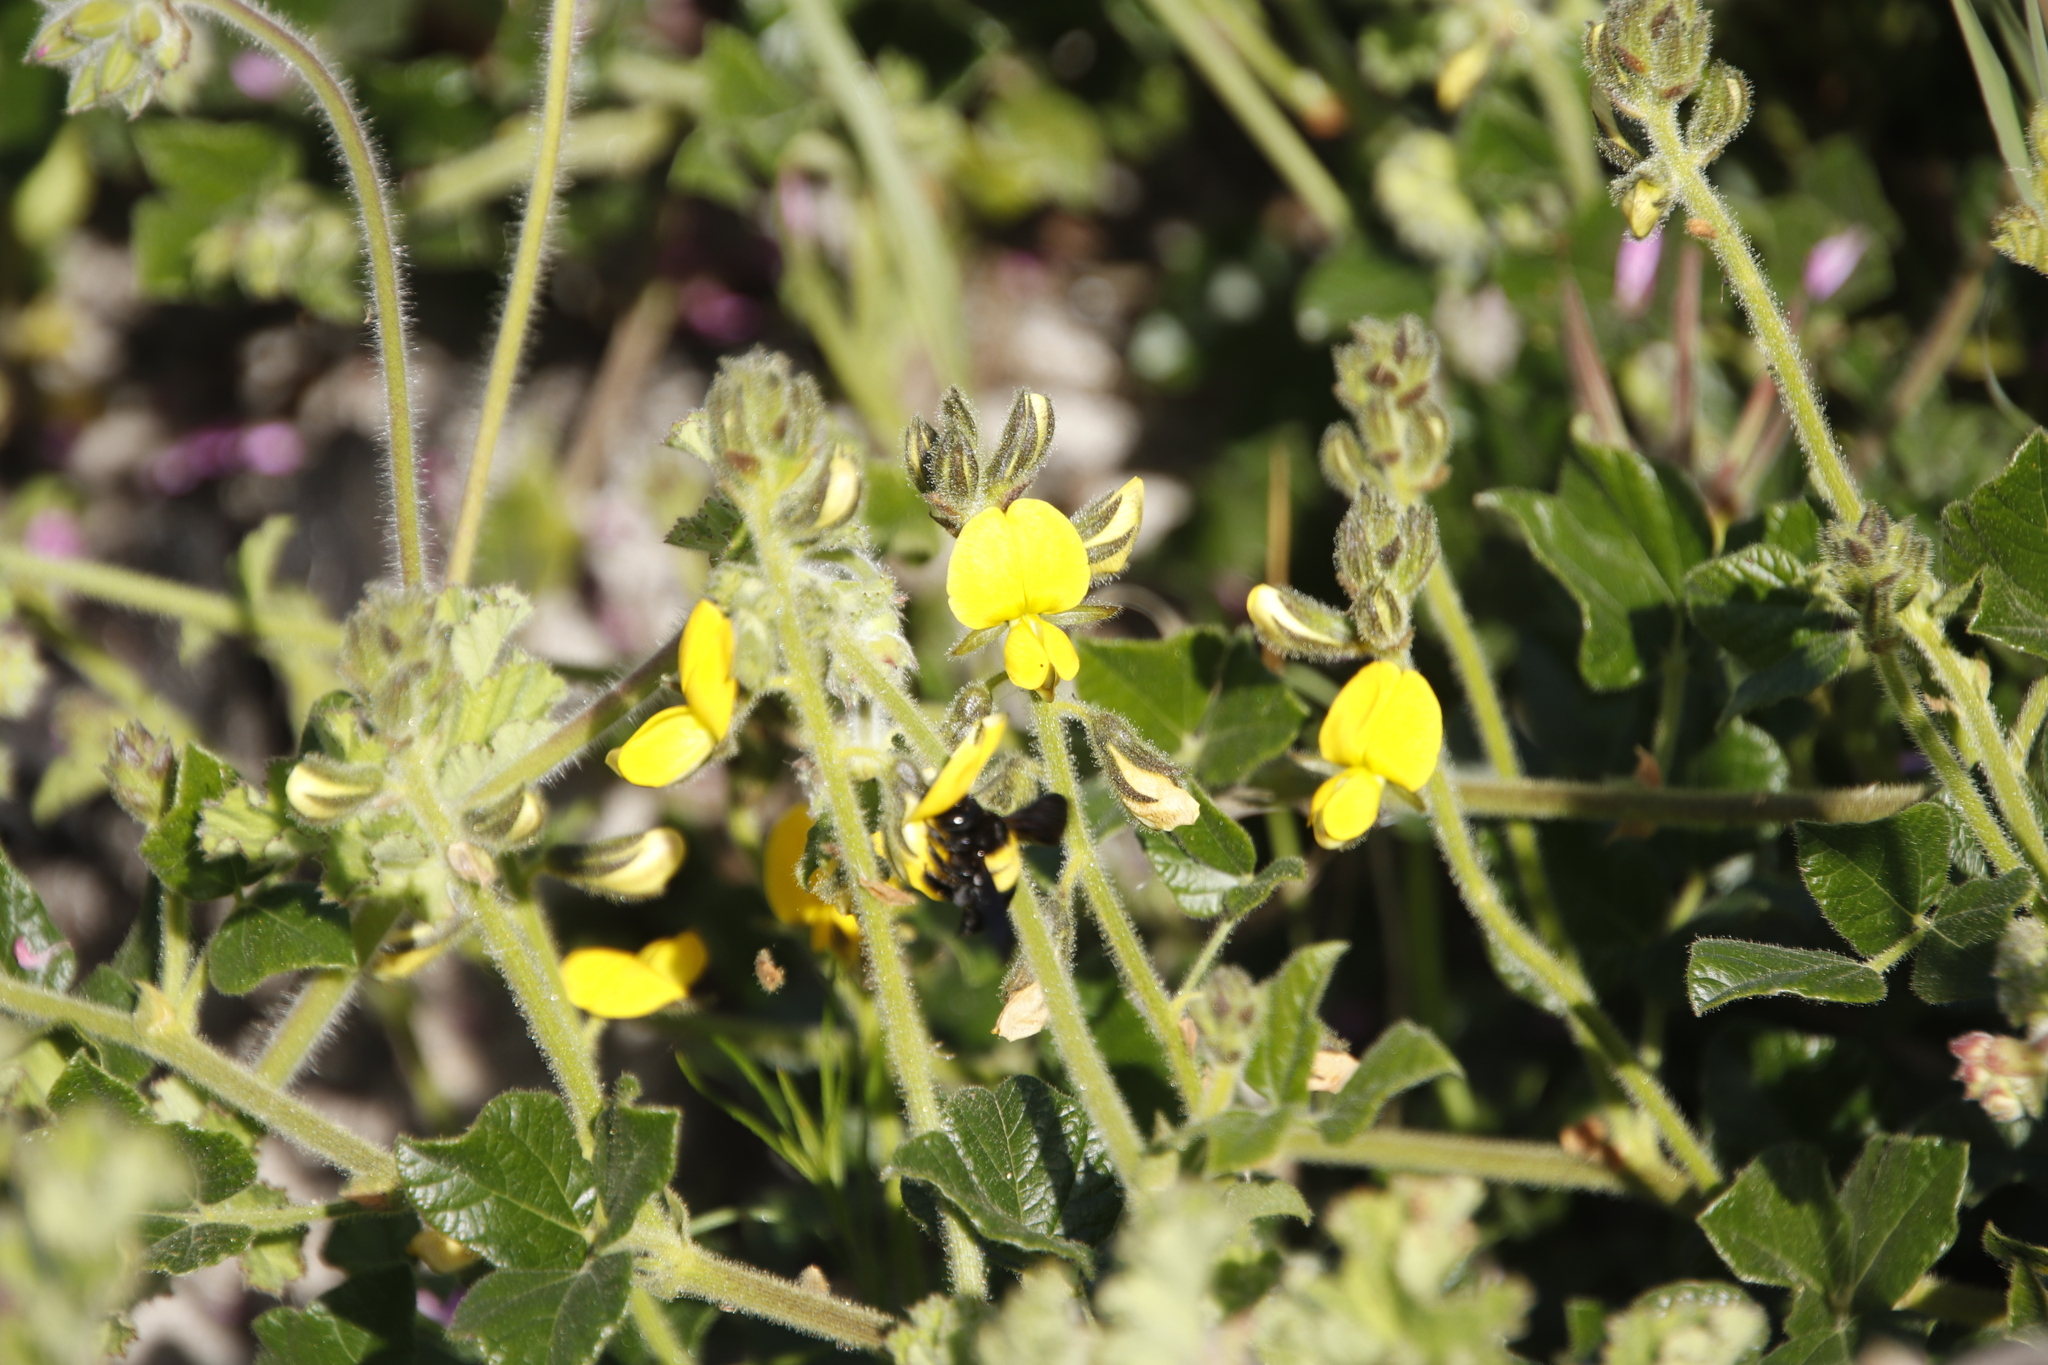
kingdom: Plantae
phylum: Tracheophyta
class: Magnoliopsida
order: Fabales
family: Fabaceae
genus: Bolusafra
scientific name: Bolusafra bituminosa
